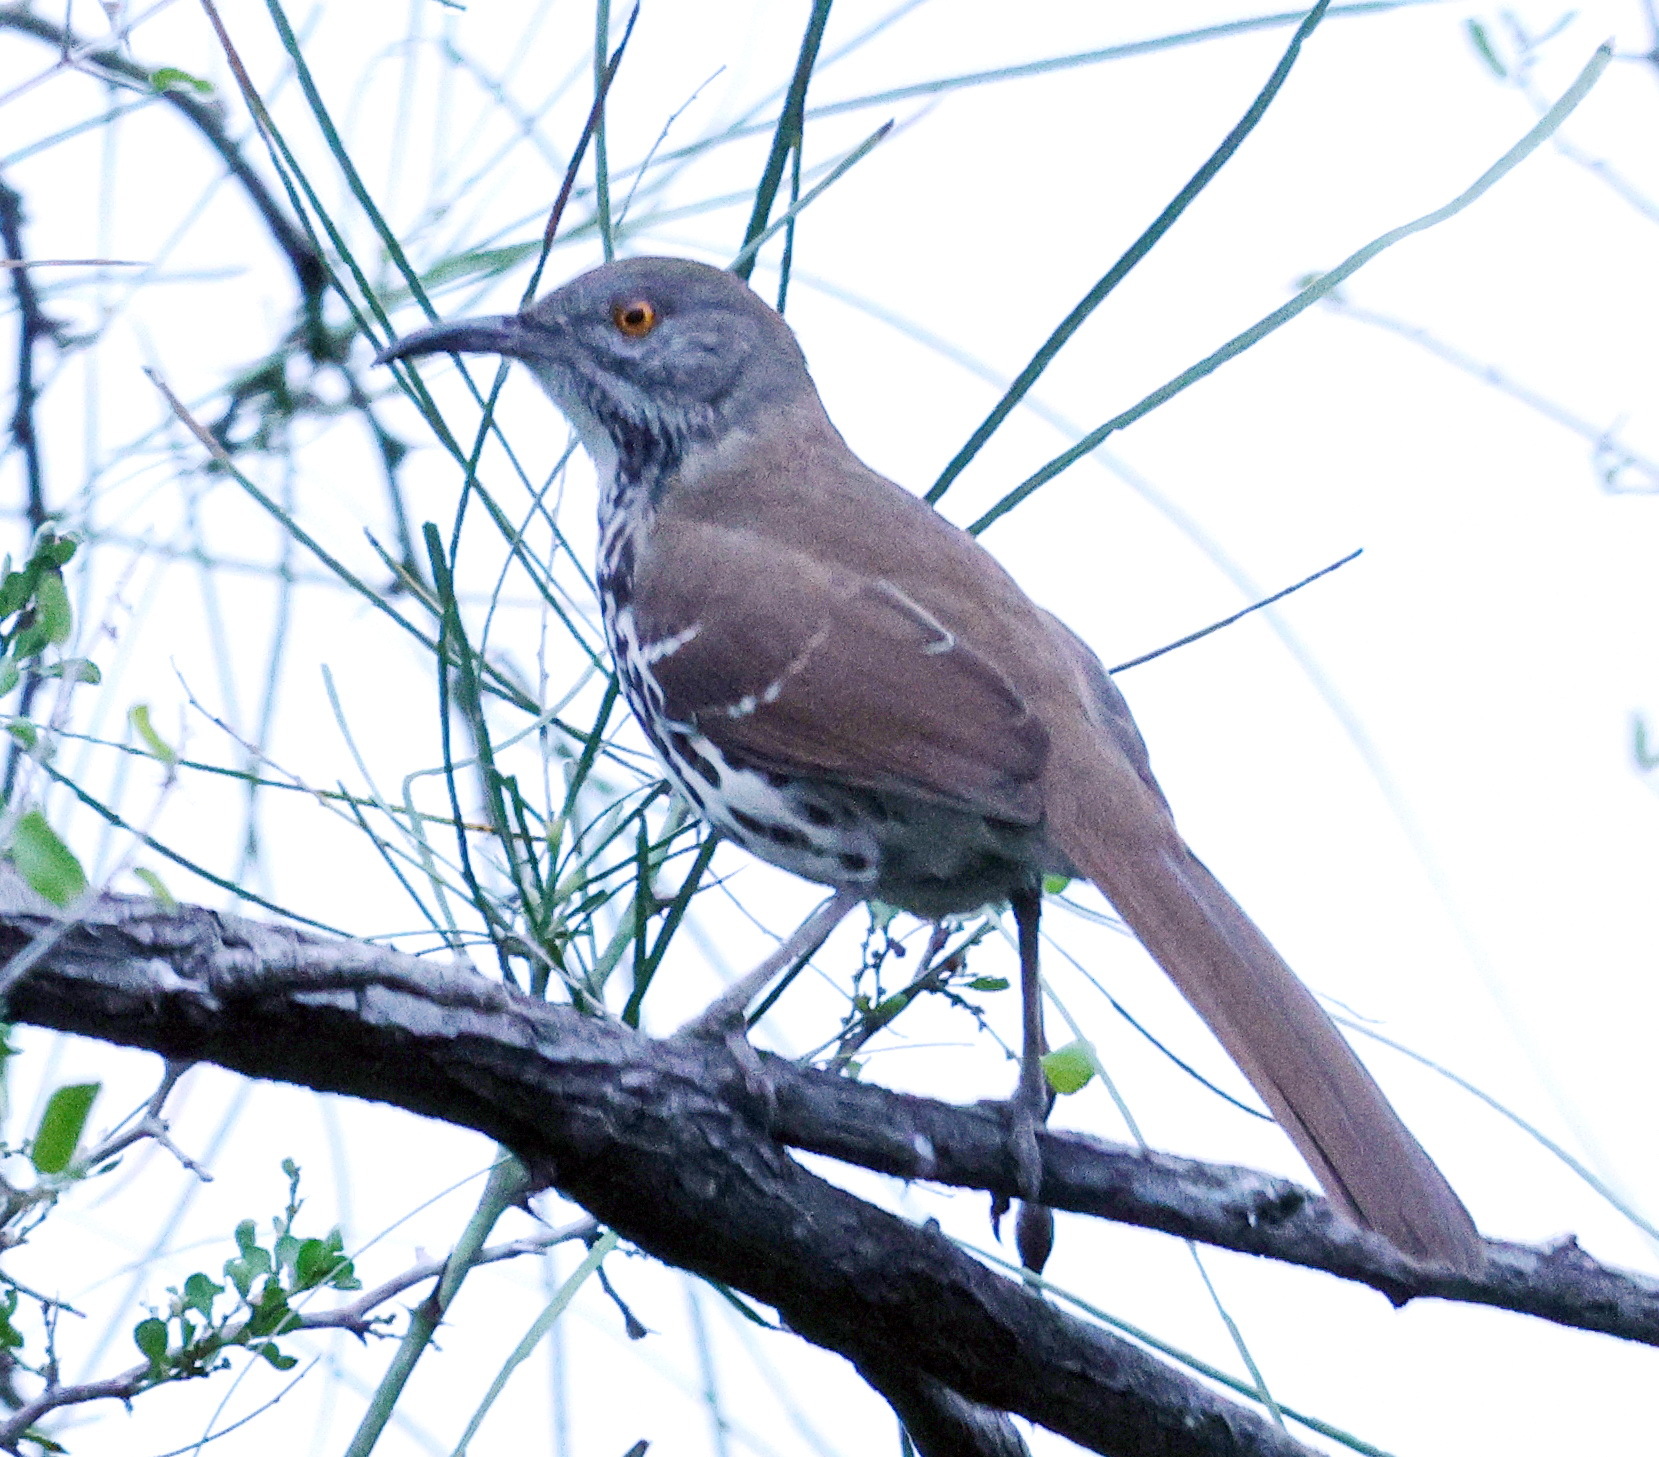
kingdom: Animalia
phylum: Chordata
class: Aves
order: Passeriformes
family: Mimidae
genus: Toxostoma
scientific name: Toxostoma longirostre
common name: Long-billed thrasher
